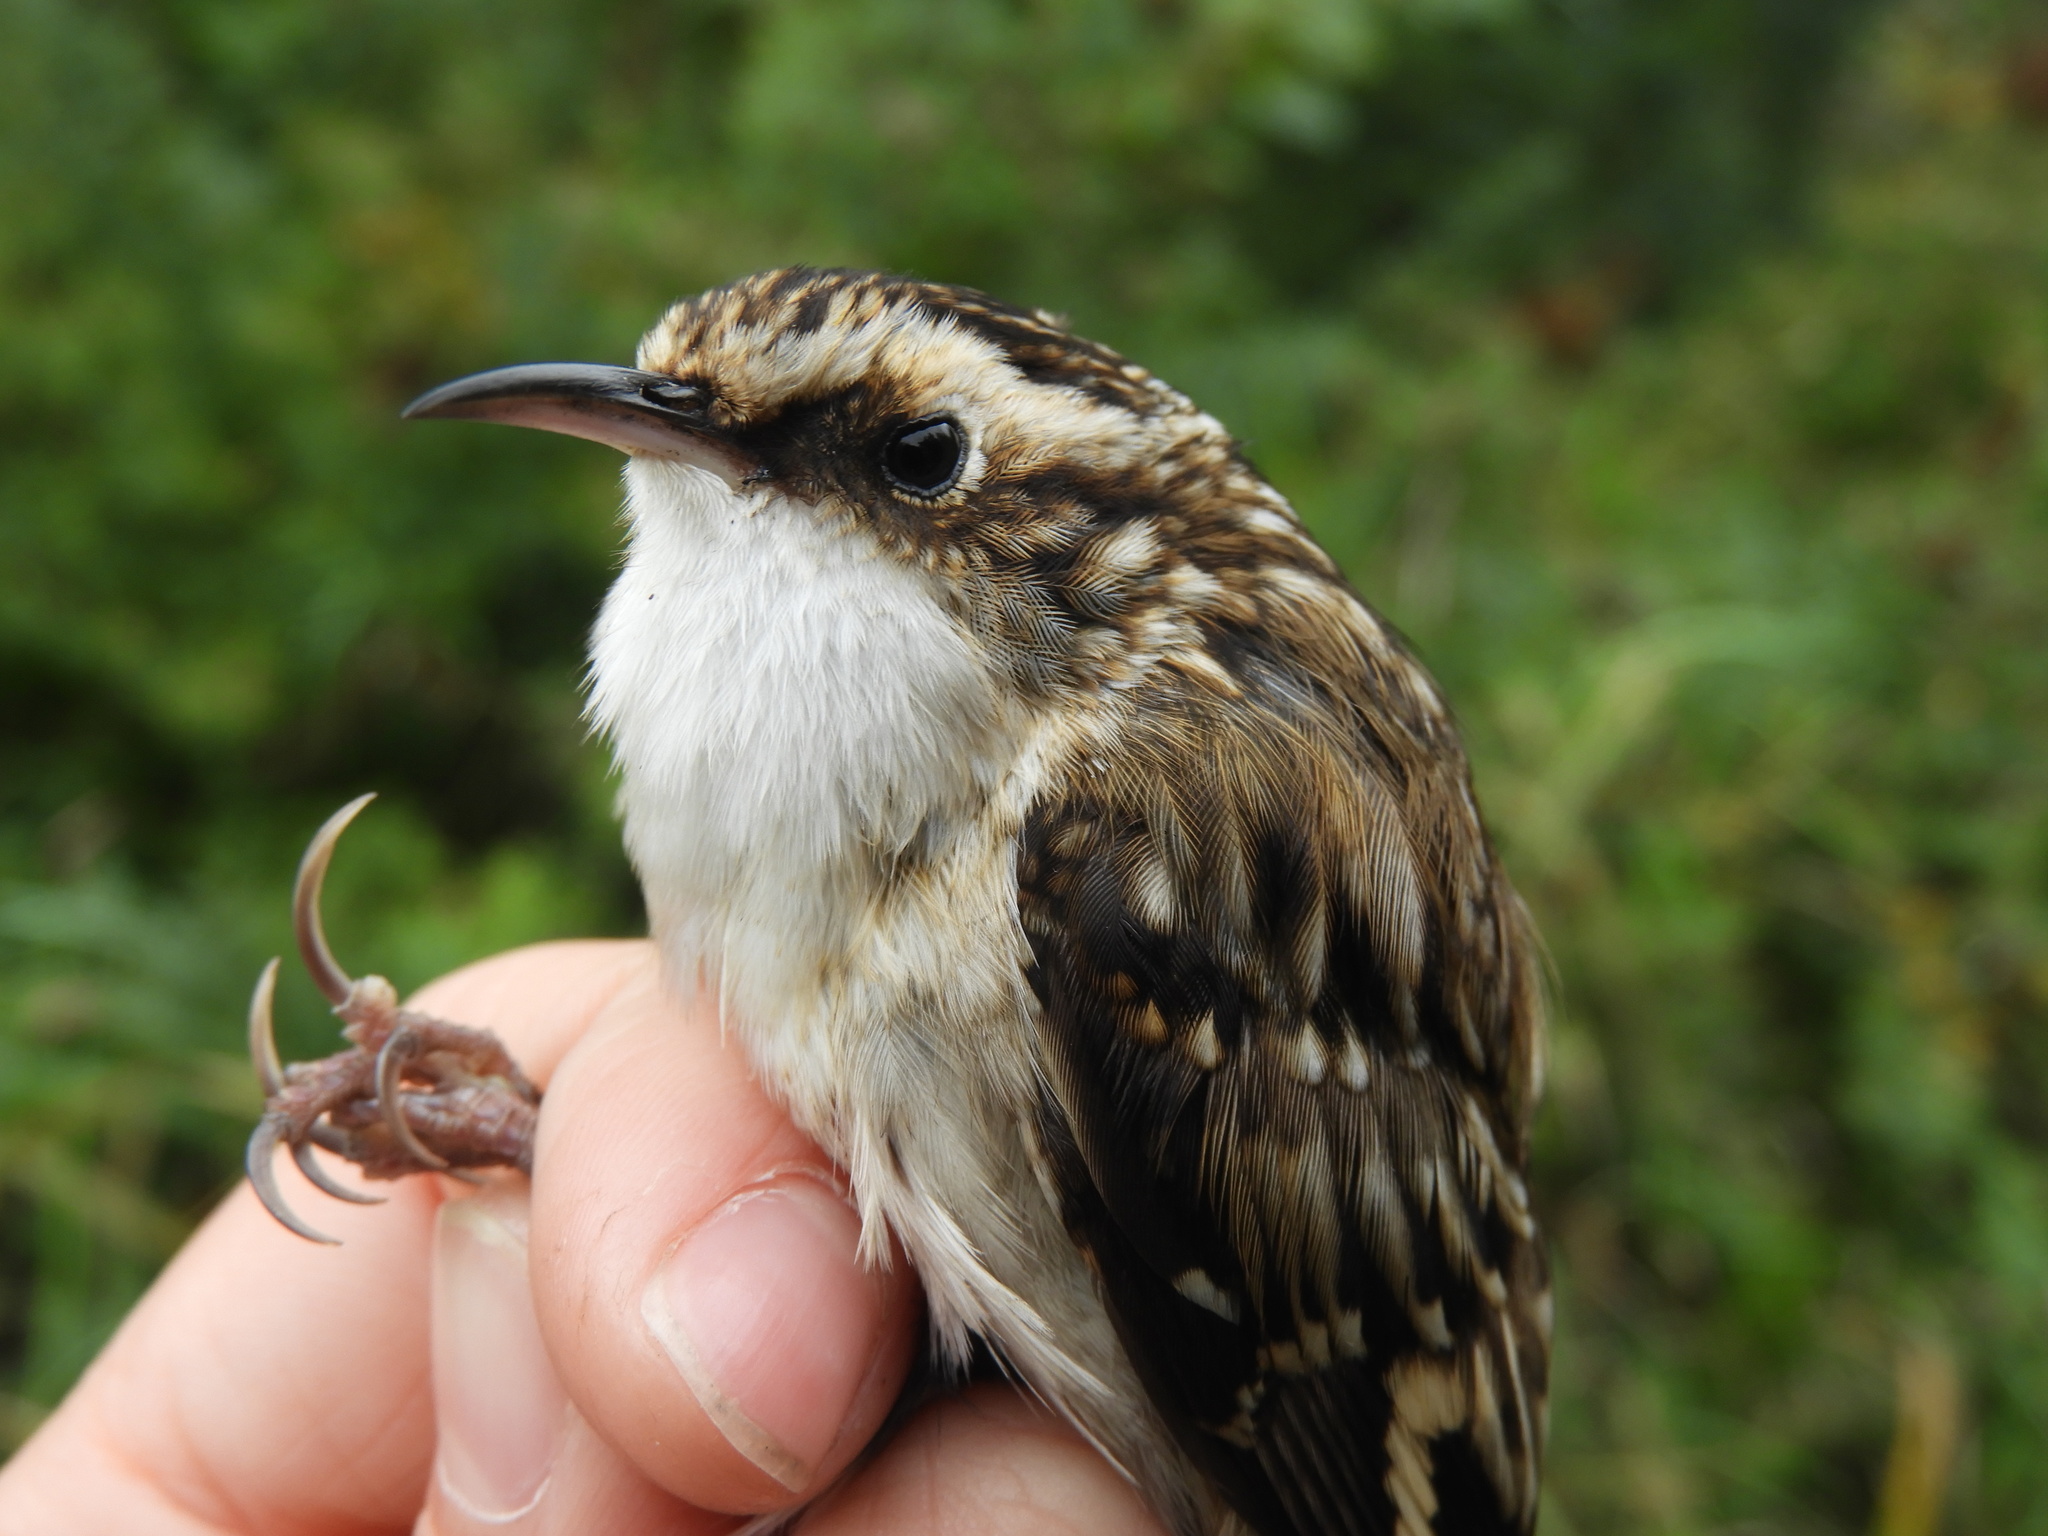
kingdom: Animalia
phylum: Chordata
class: Aves
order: Passeriformes
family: Certhiidae
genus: Certhia
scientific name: Certhia americana
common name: Brown creeper
